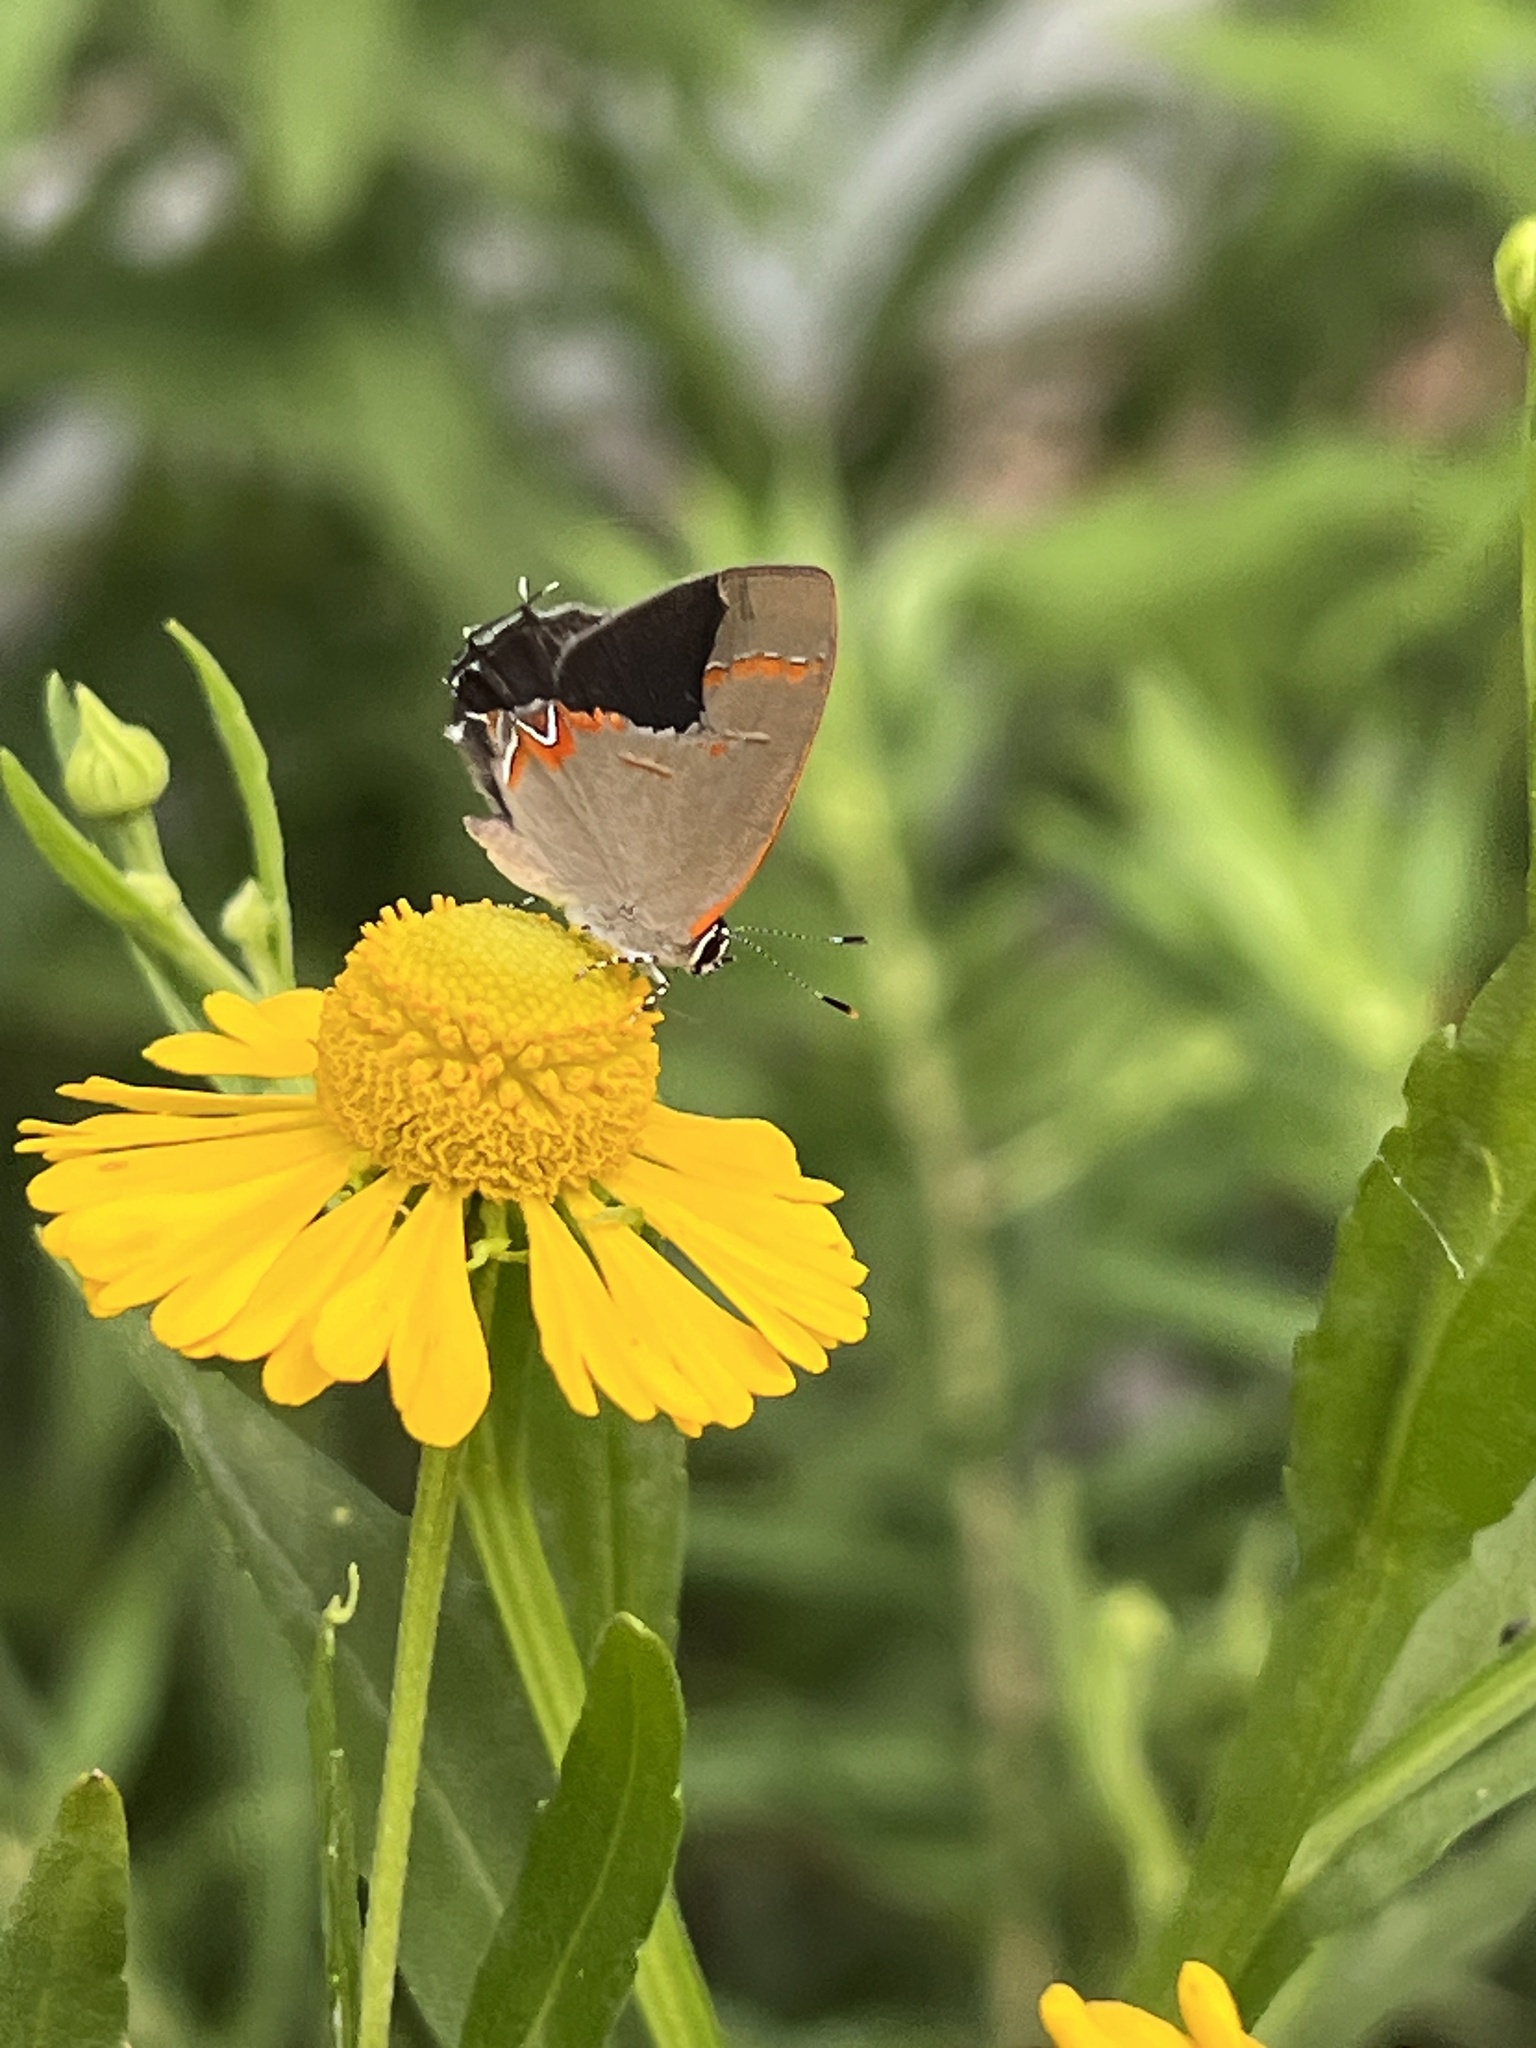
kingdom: Animalia
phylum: Arthropoda
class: Insecta
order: Lepidoptera
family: Lycaenidae
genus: Calycopis
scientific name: Calycopis cecrops
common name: Red-banded hairstreak
